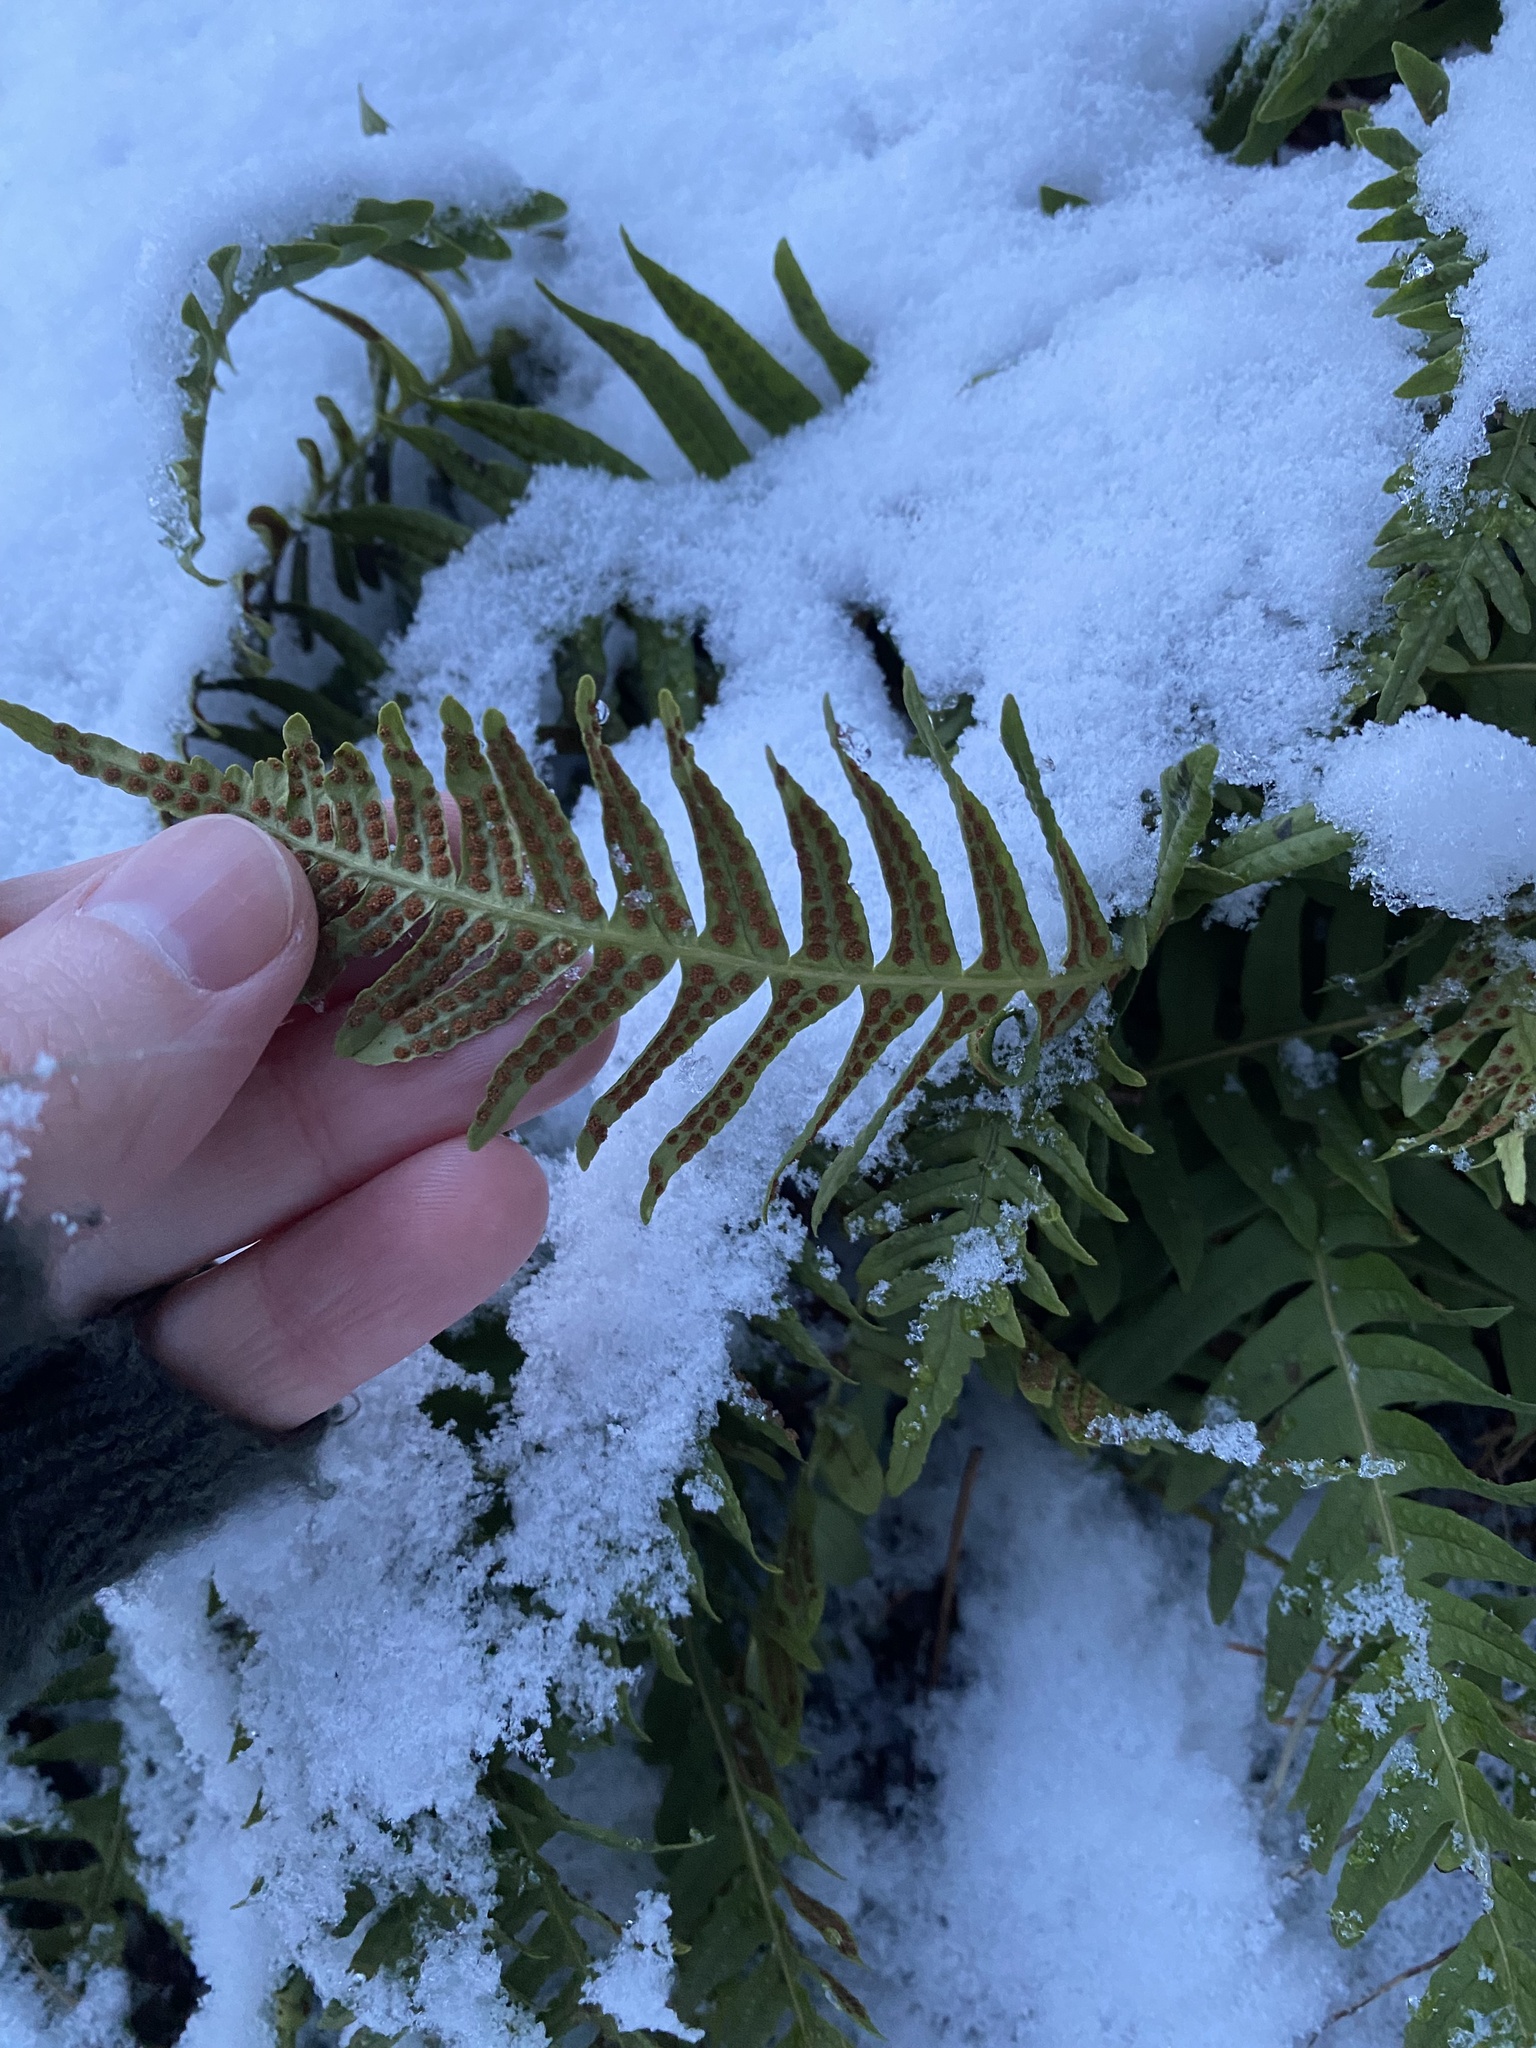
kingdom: Plantae
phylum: Tracheophyta
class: Polypodiopsida
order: Polypodiales
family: Polypodiaceae
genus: Polypodium
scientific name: Polypodium vulgare
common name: Common polypody
